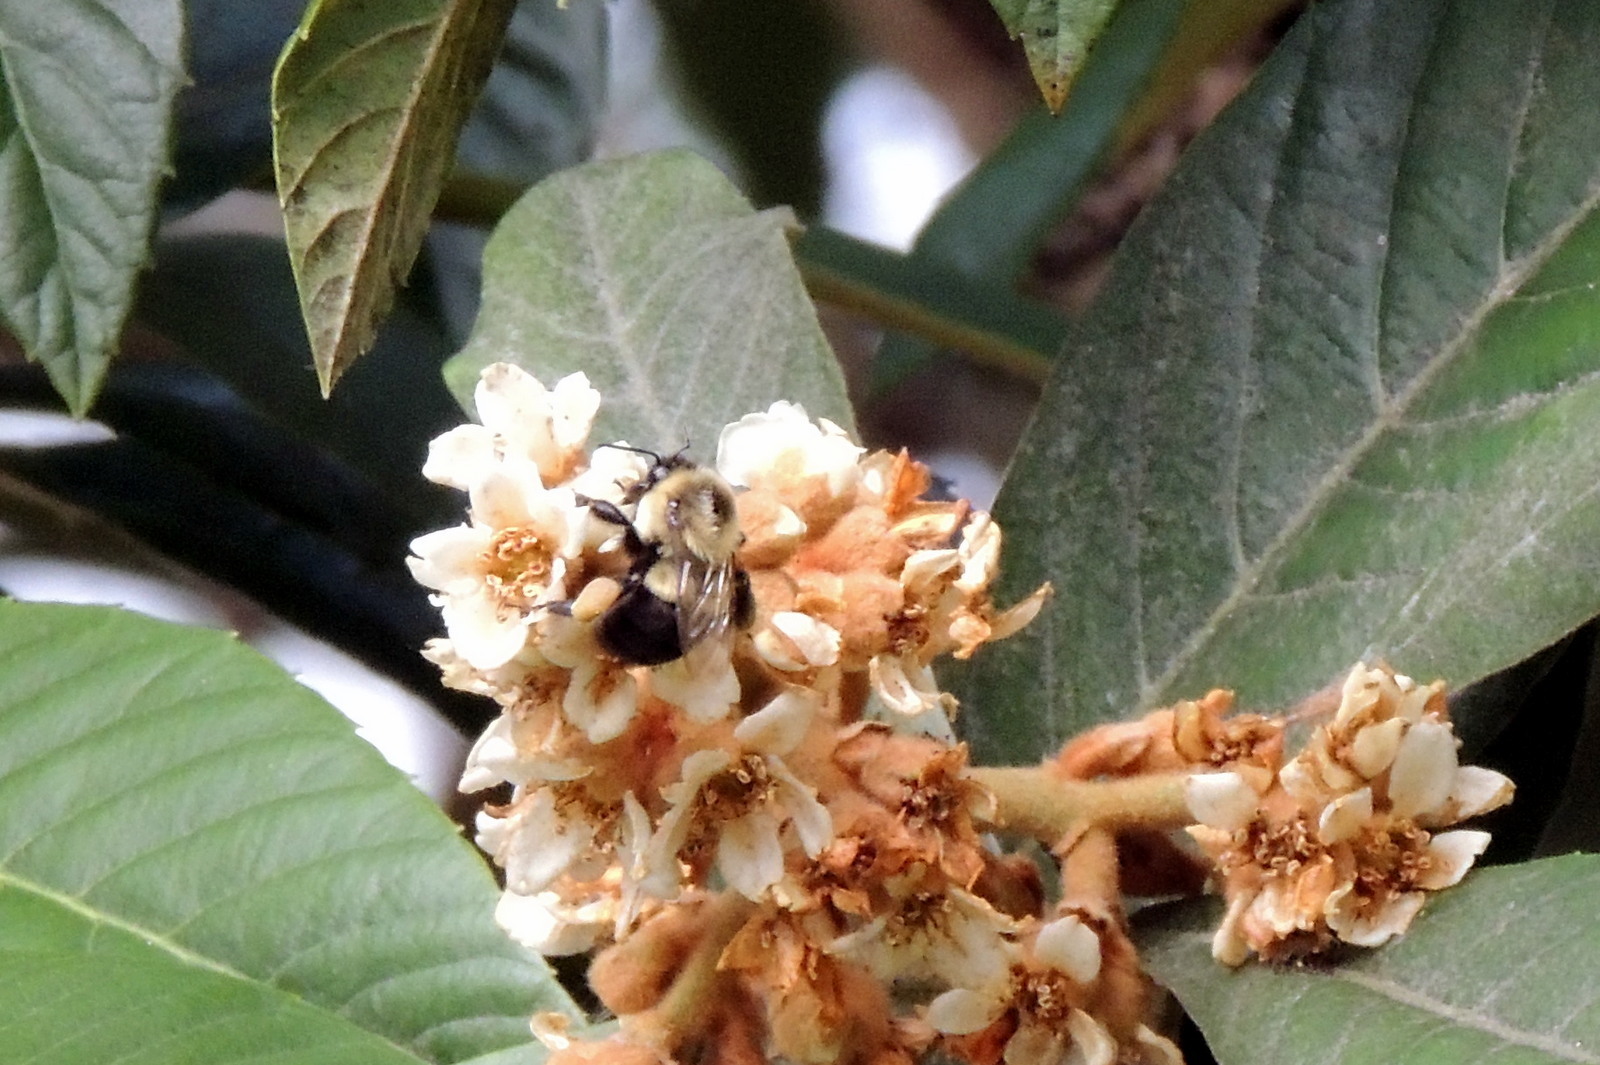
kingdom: Animalia
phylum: Arthropoda
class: Insecta
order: Hymenoptera
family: Apidae
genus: Bombus
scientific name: Bombus impatiens
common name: Common eastern bumble bee
